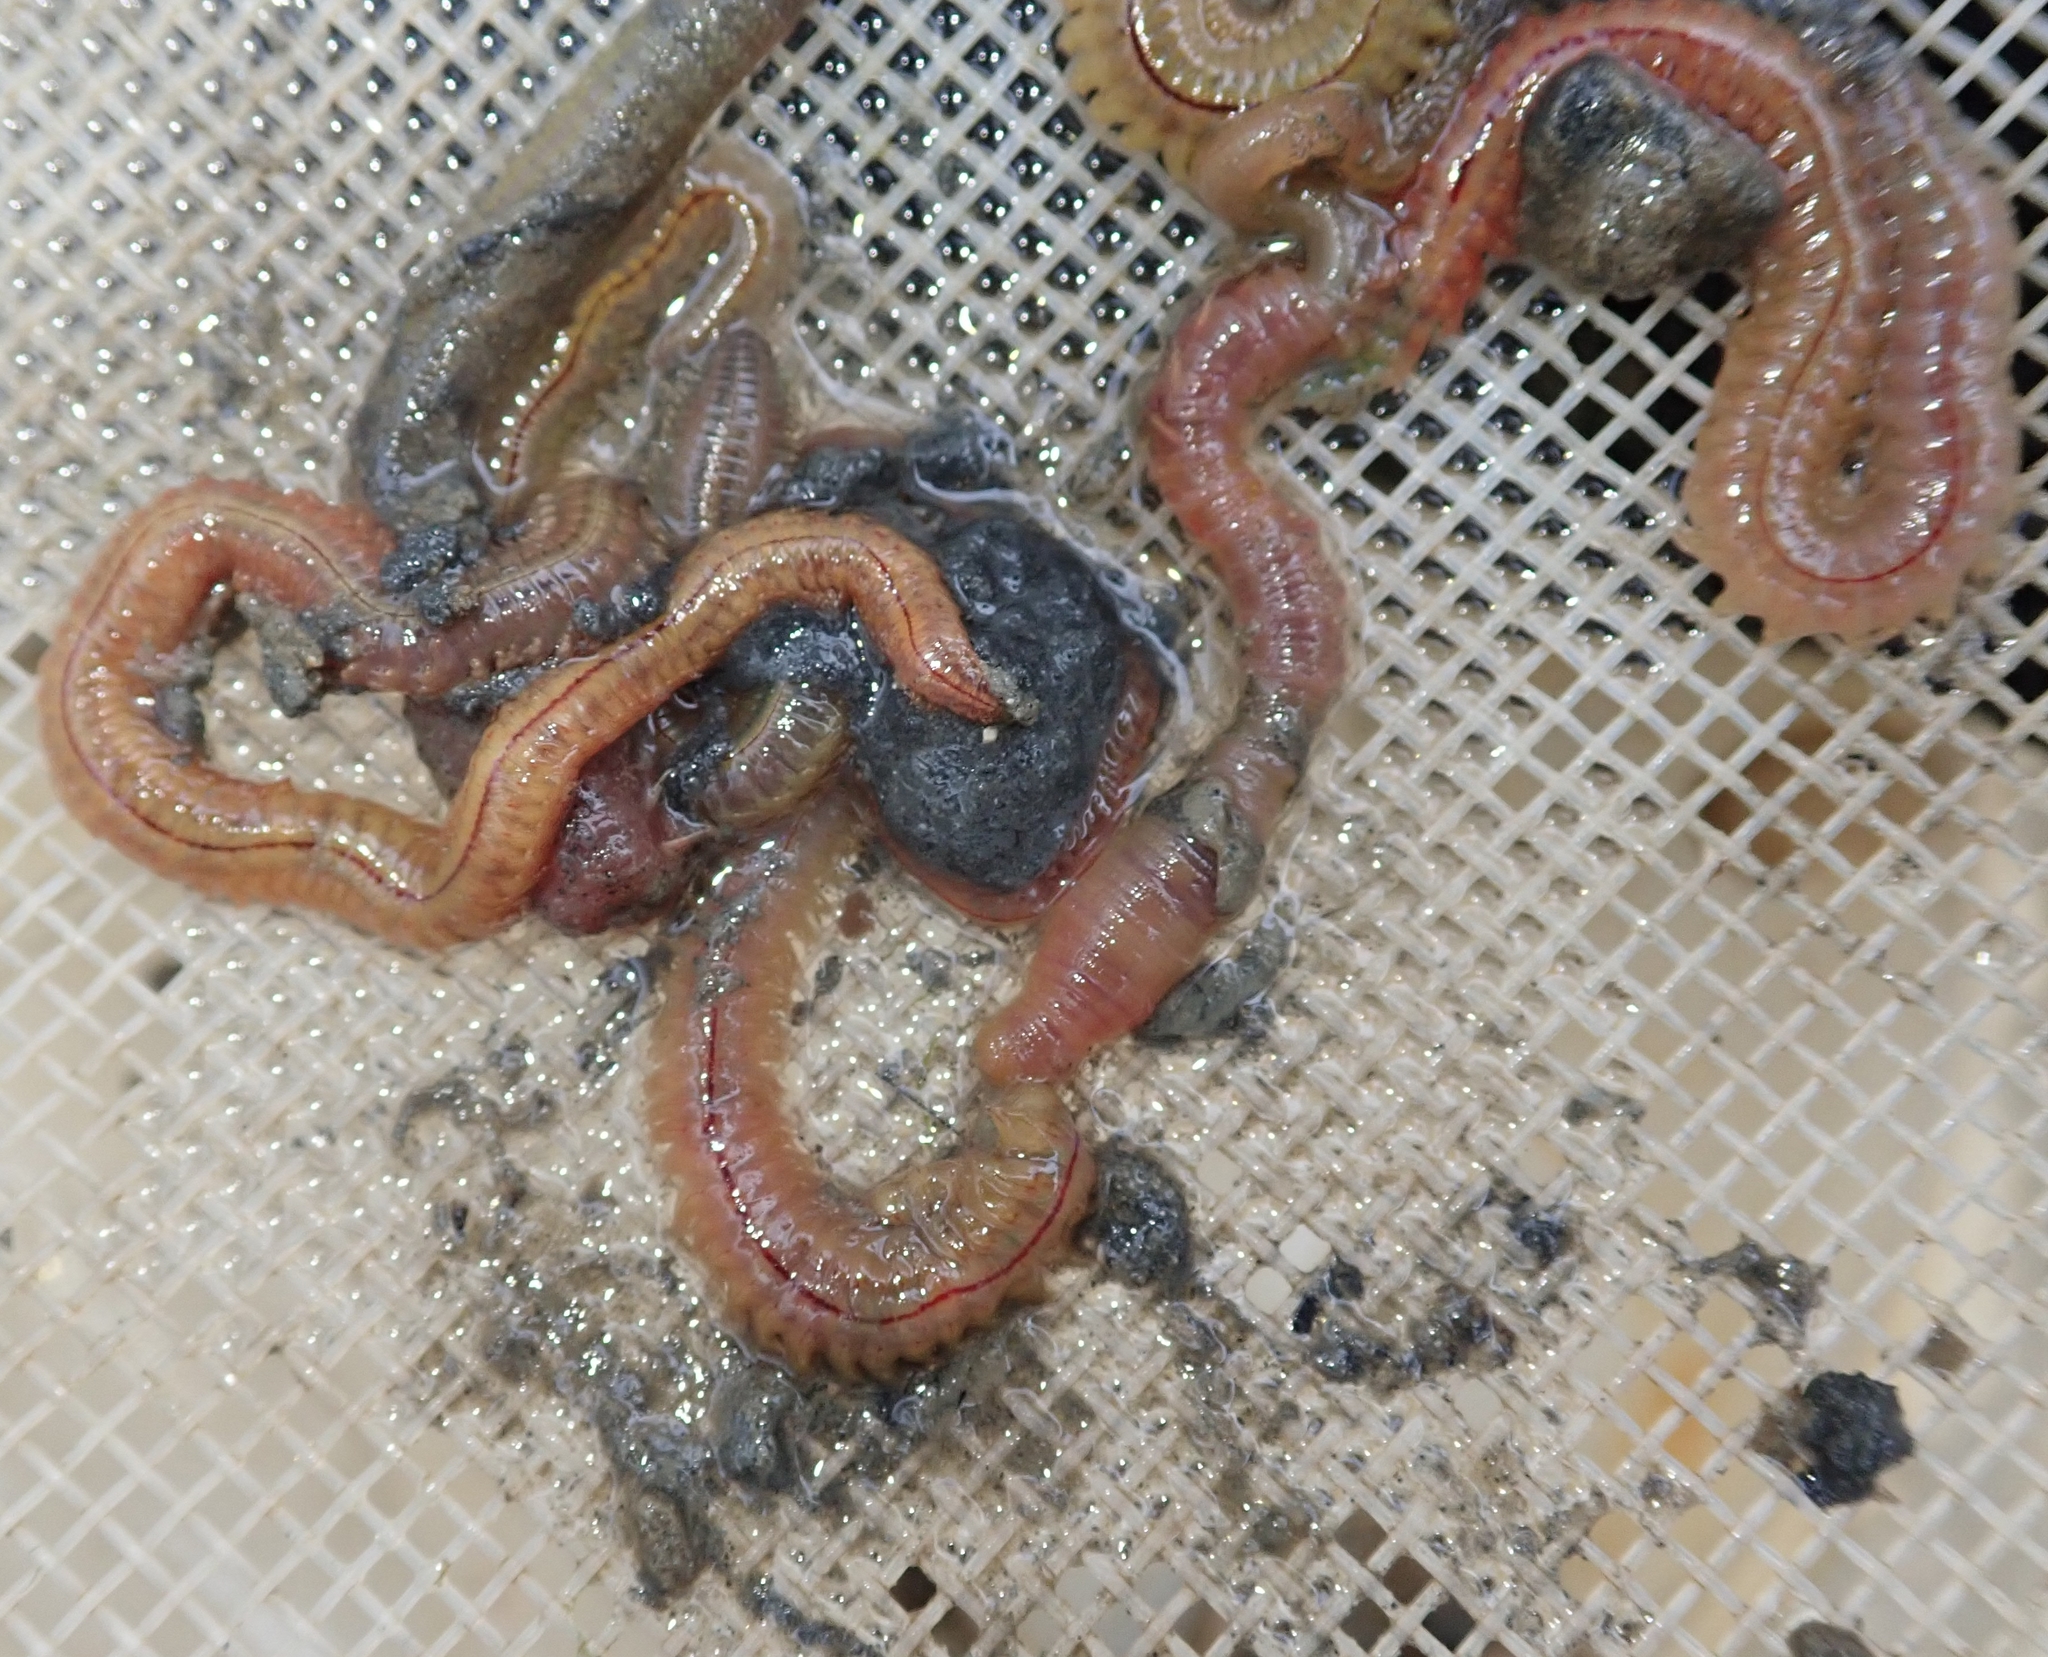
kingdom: Animalia
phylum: Annelida
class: Polychaeta
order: Phyllodocida
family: Nereididae
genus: Hediste
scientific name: Hediste diversicolor
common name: Estuary ragworm
